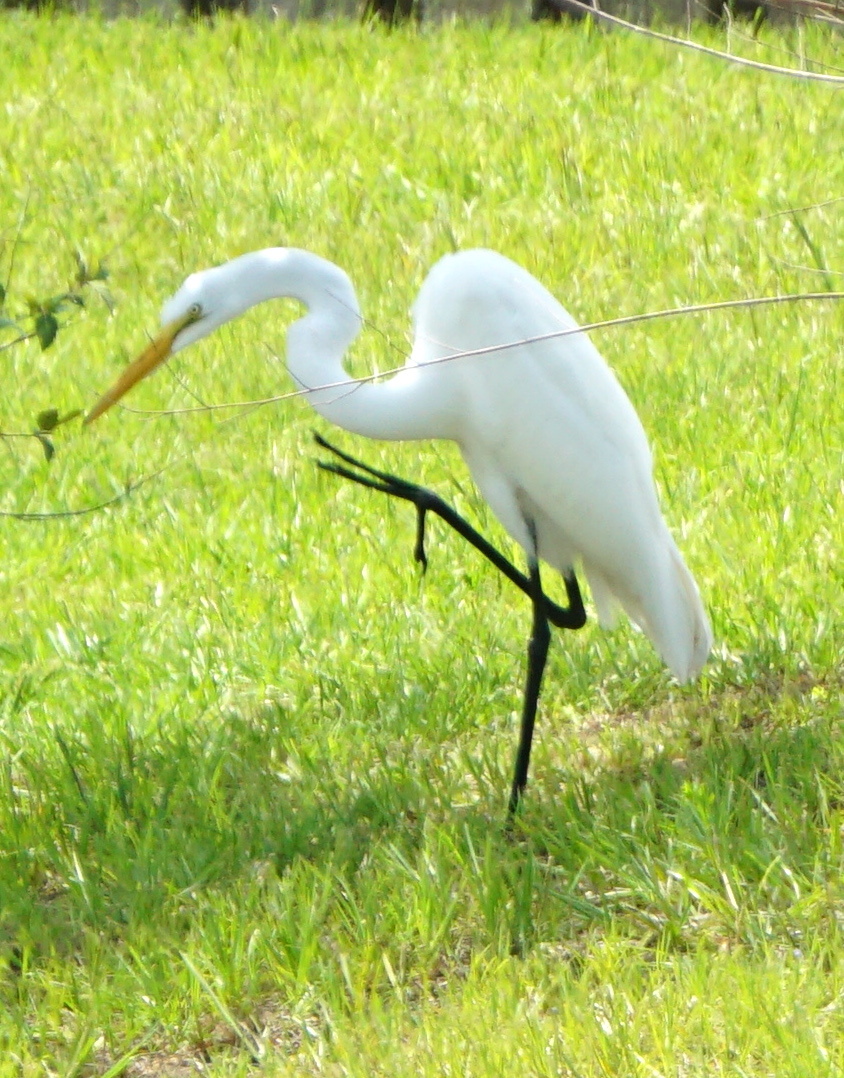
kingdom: Animalia
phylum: Chordata
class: Aves
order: Pelecaniformes
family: Ardeidae
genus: Ardea
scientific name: Ardea alba
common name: Great egret
